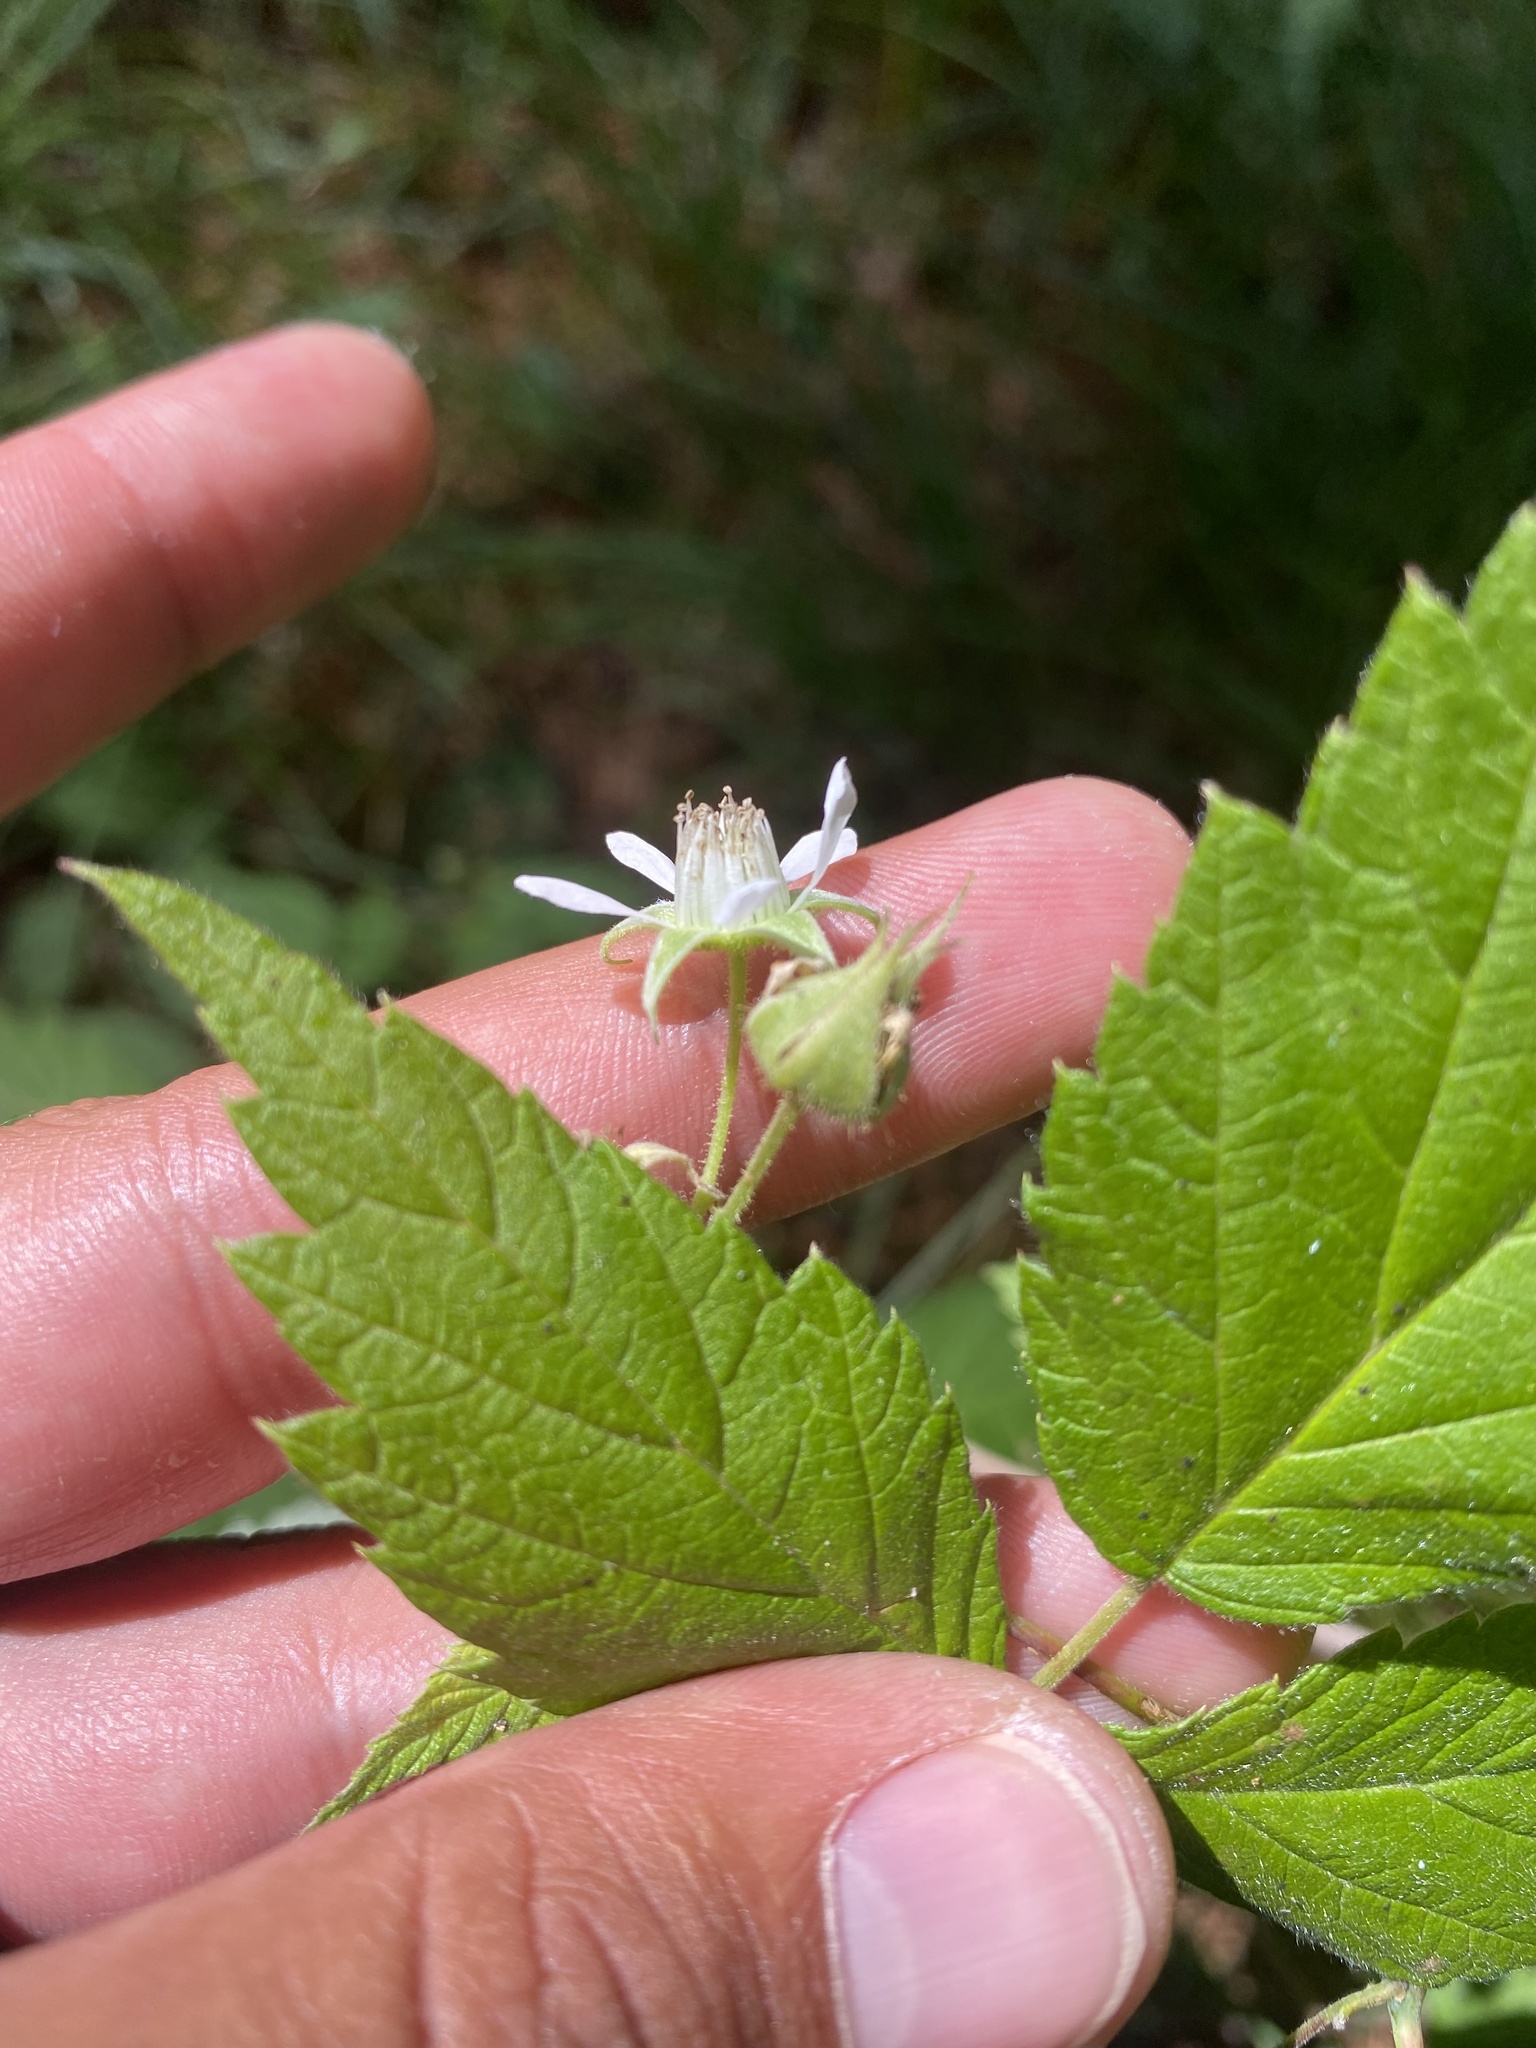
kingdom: Plantae
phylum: Tracheophyta
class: Magnoliopsida
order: Rosales
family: Rosaceae
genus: Rubus
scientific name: Rubus idaeus
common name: Raspberry
